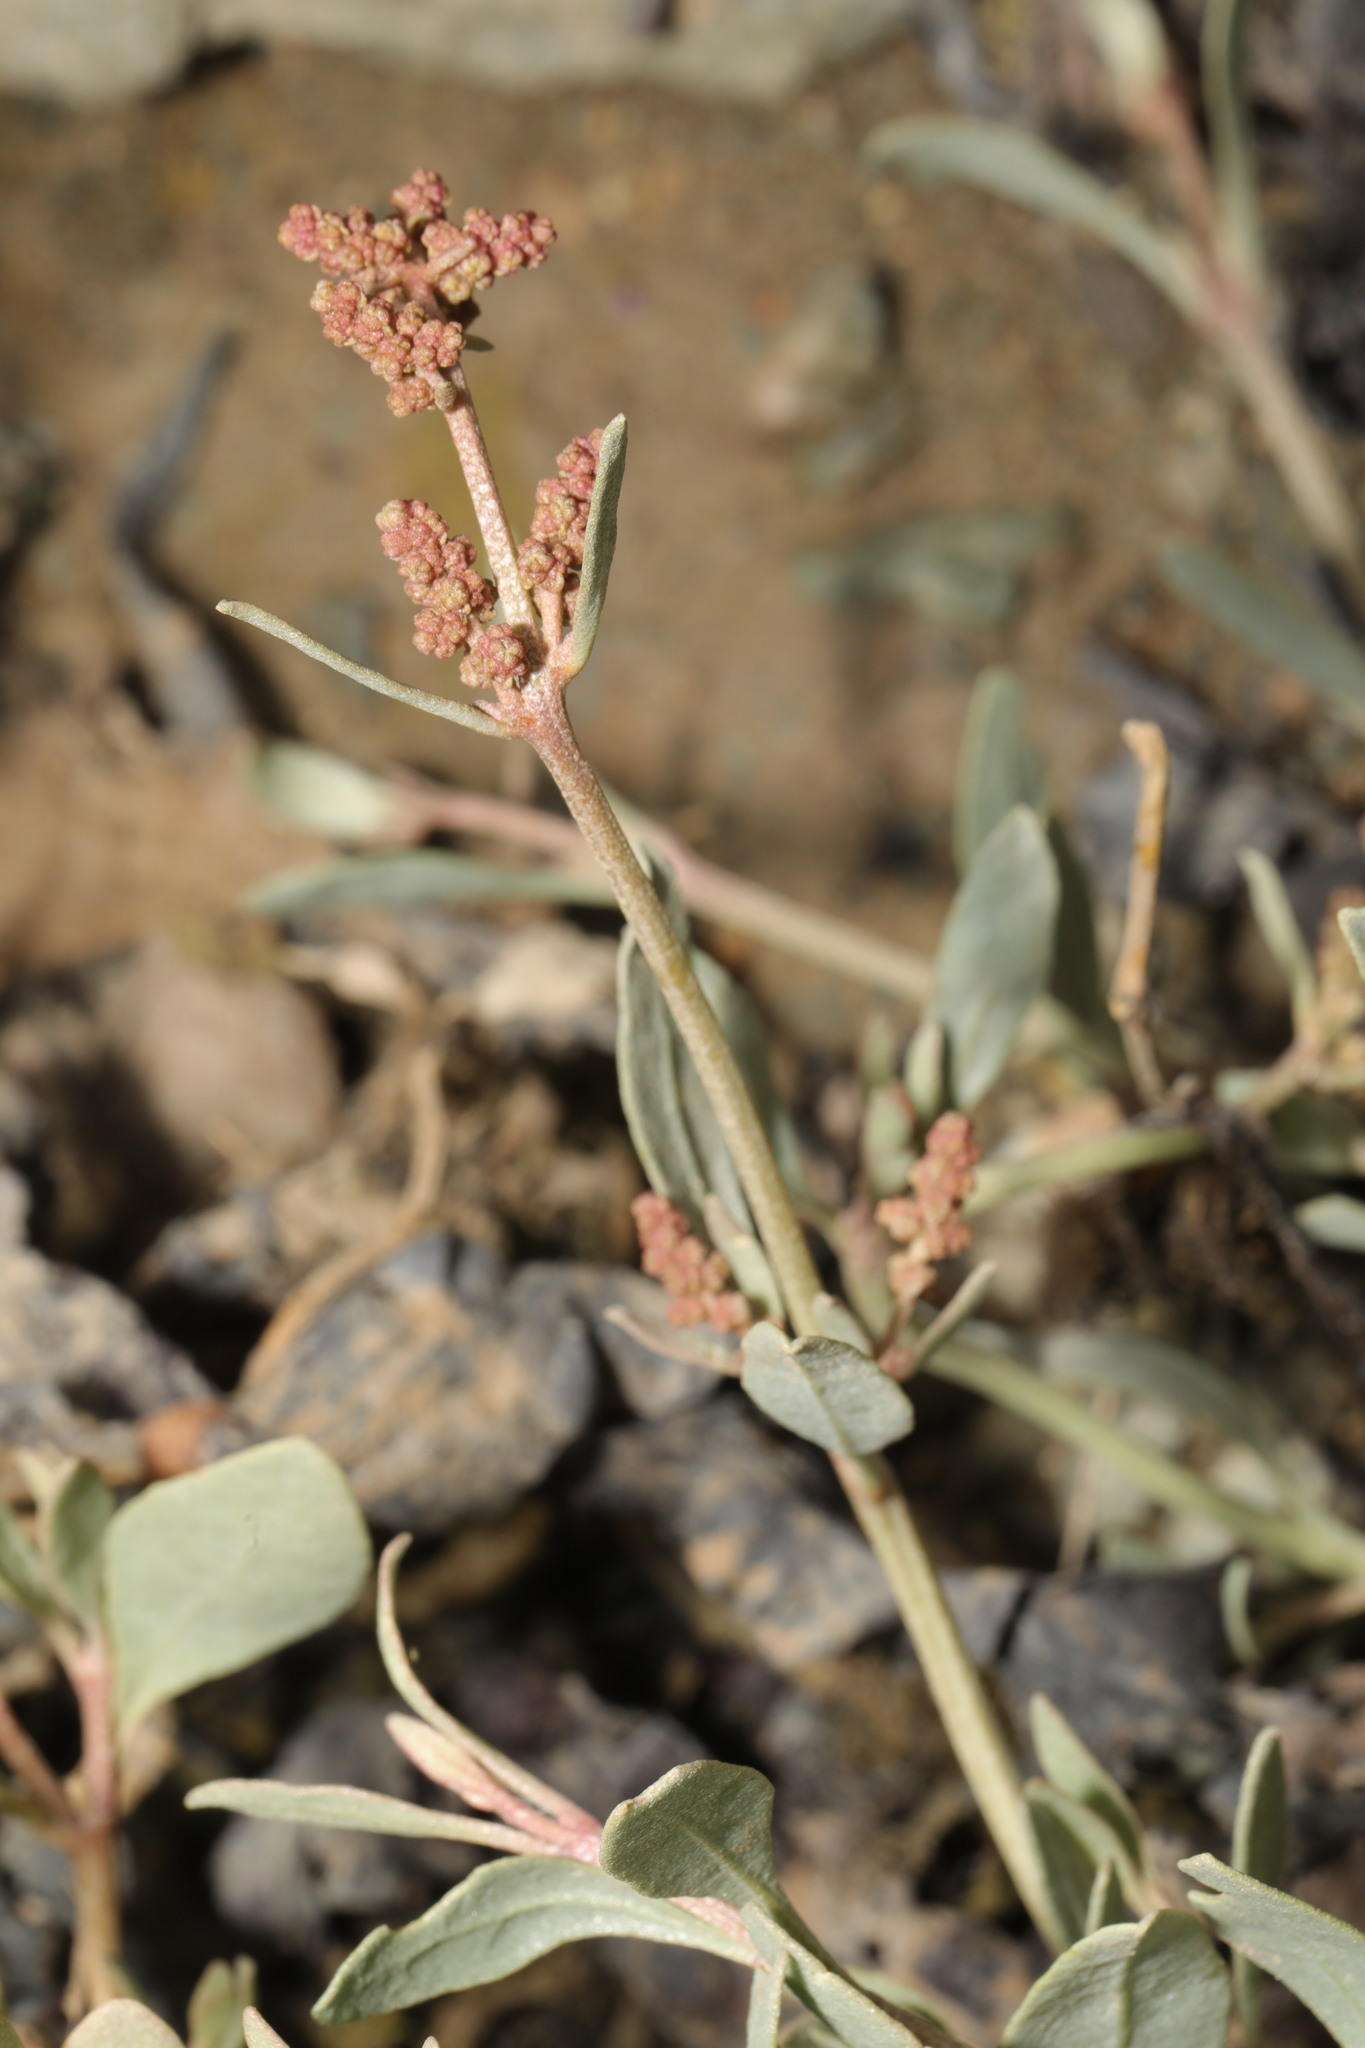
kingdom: Plantae
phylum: Tracheophyta
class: Magnoliopsida
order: Caryophyllales
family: Amaranthaceae
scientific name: Amaranthaceae
